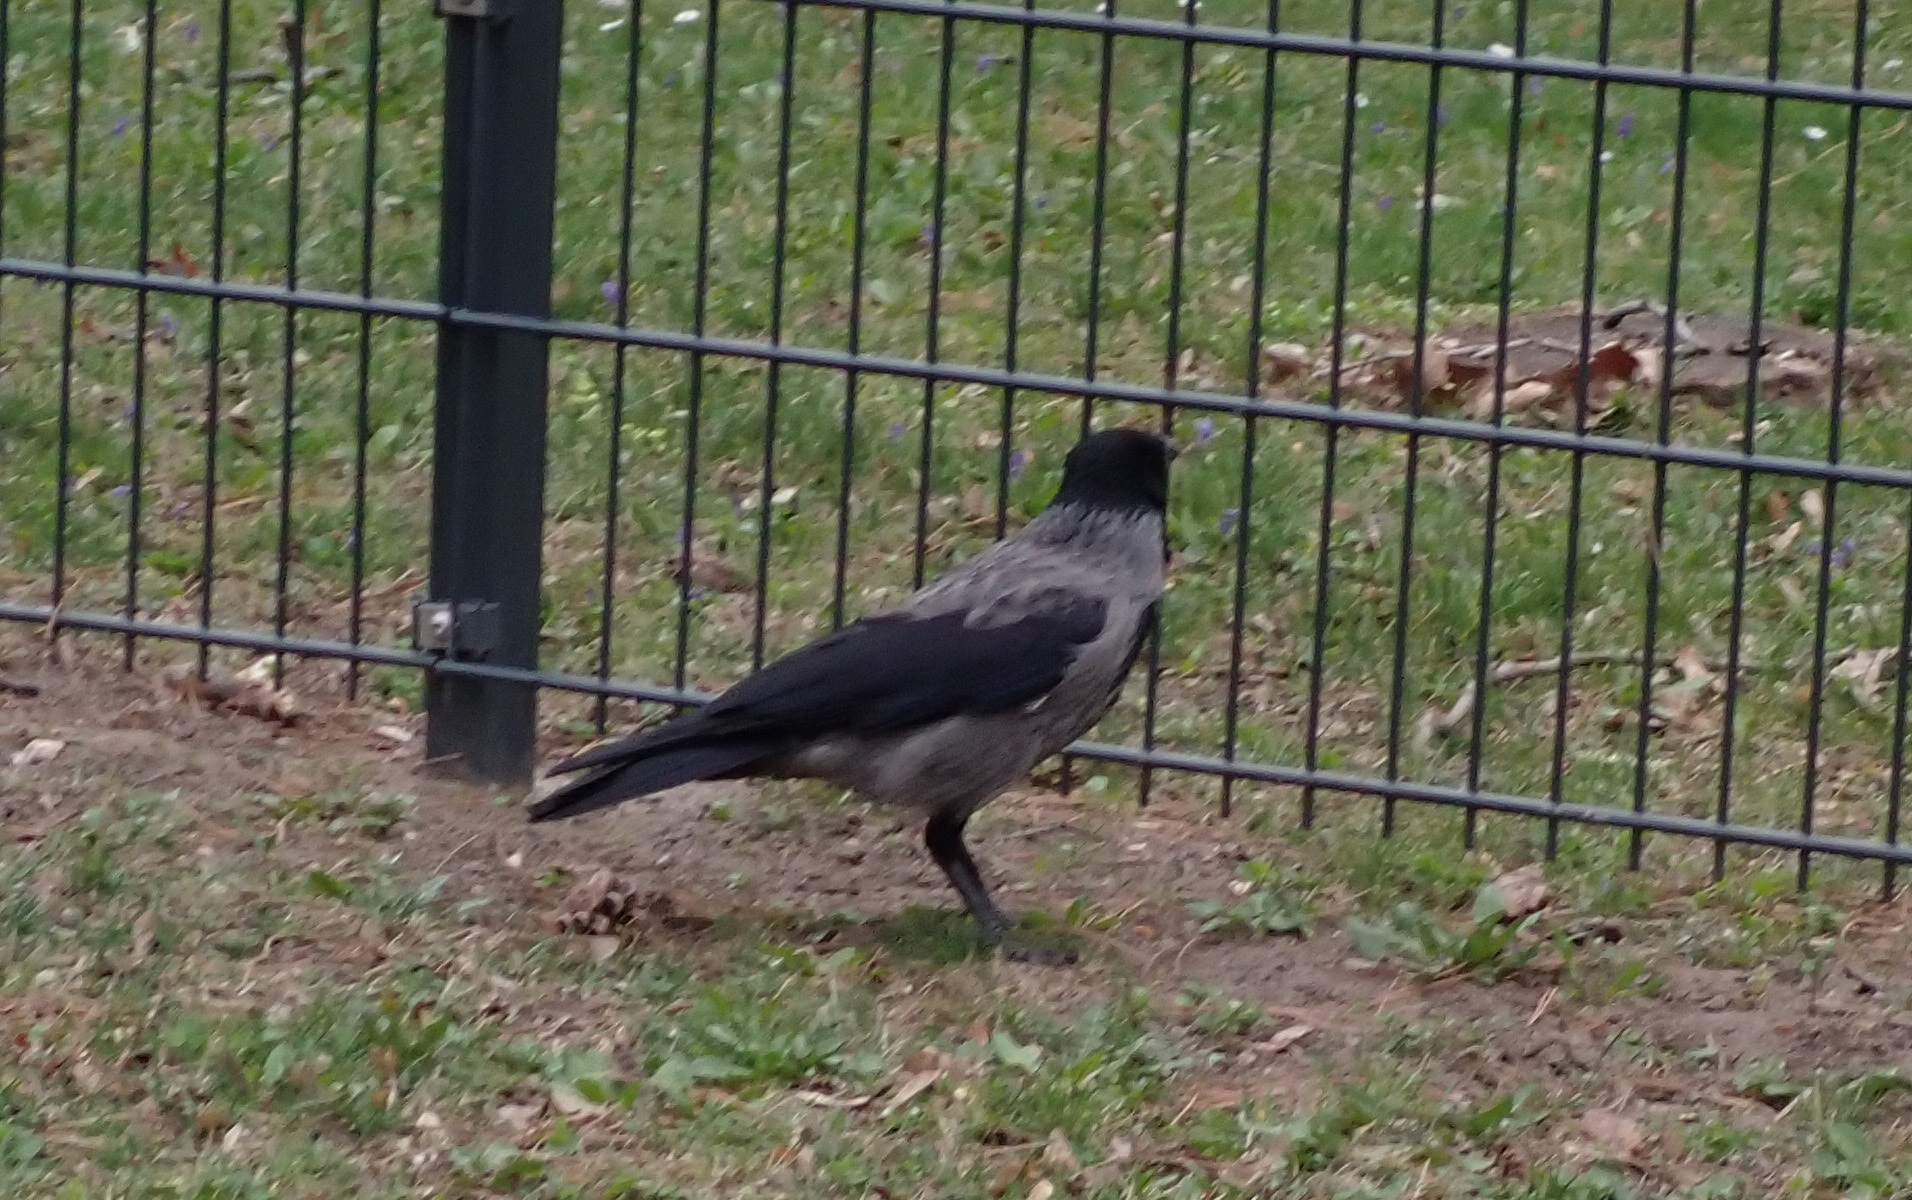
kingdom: Animalia
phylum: Chordata
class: Aves
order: Passeriformes
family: Corvidae
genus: Corvus
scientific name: Corvus cornix
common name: Hooded crow
